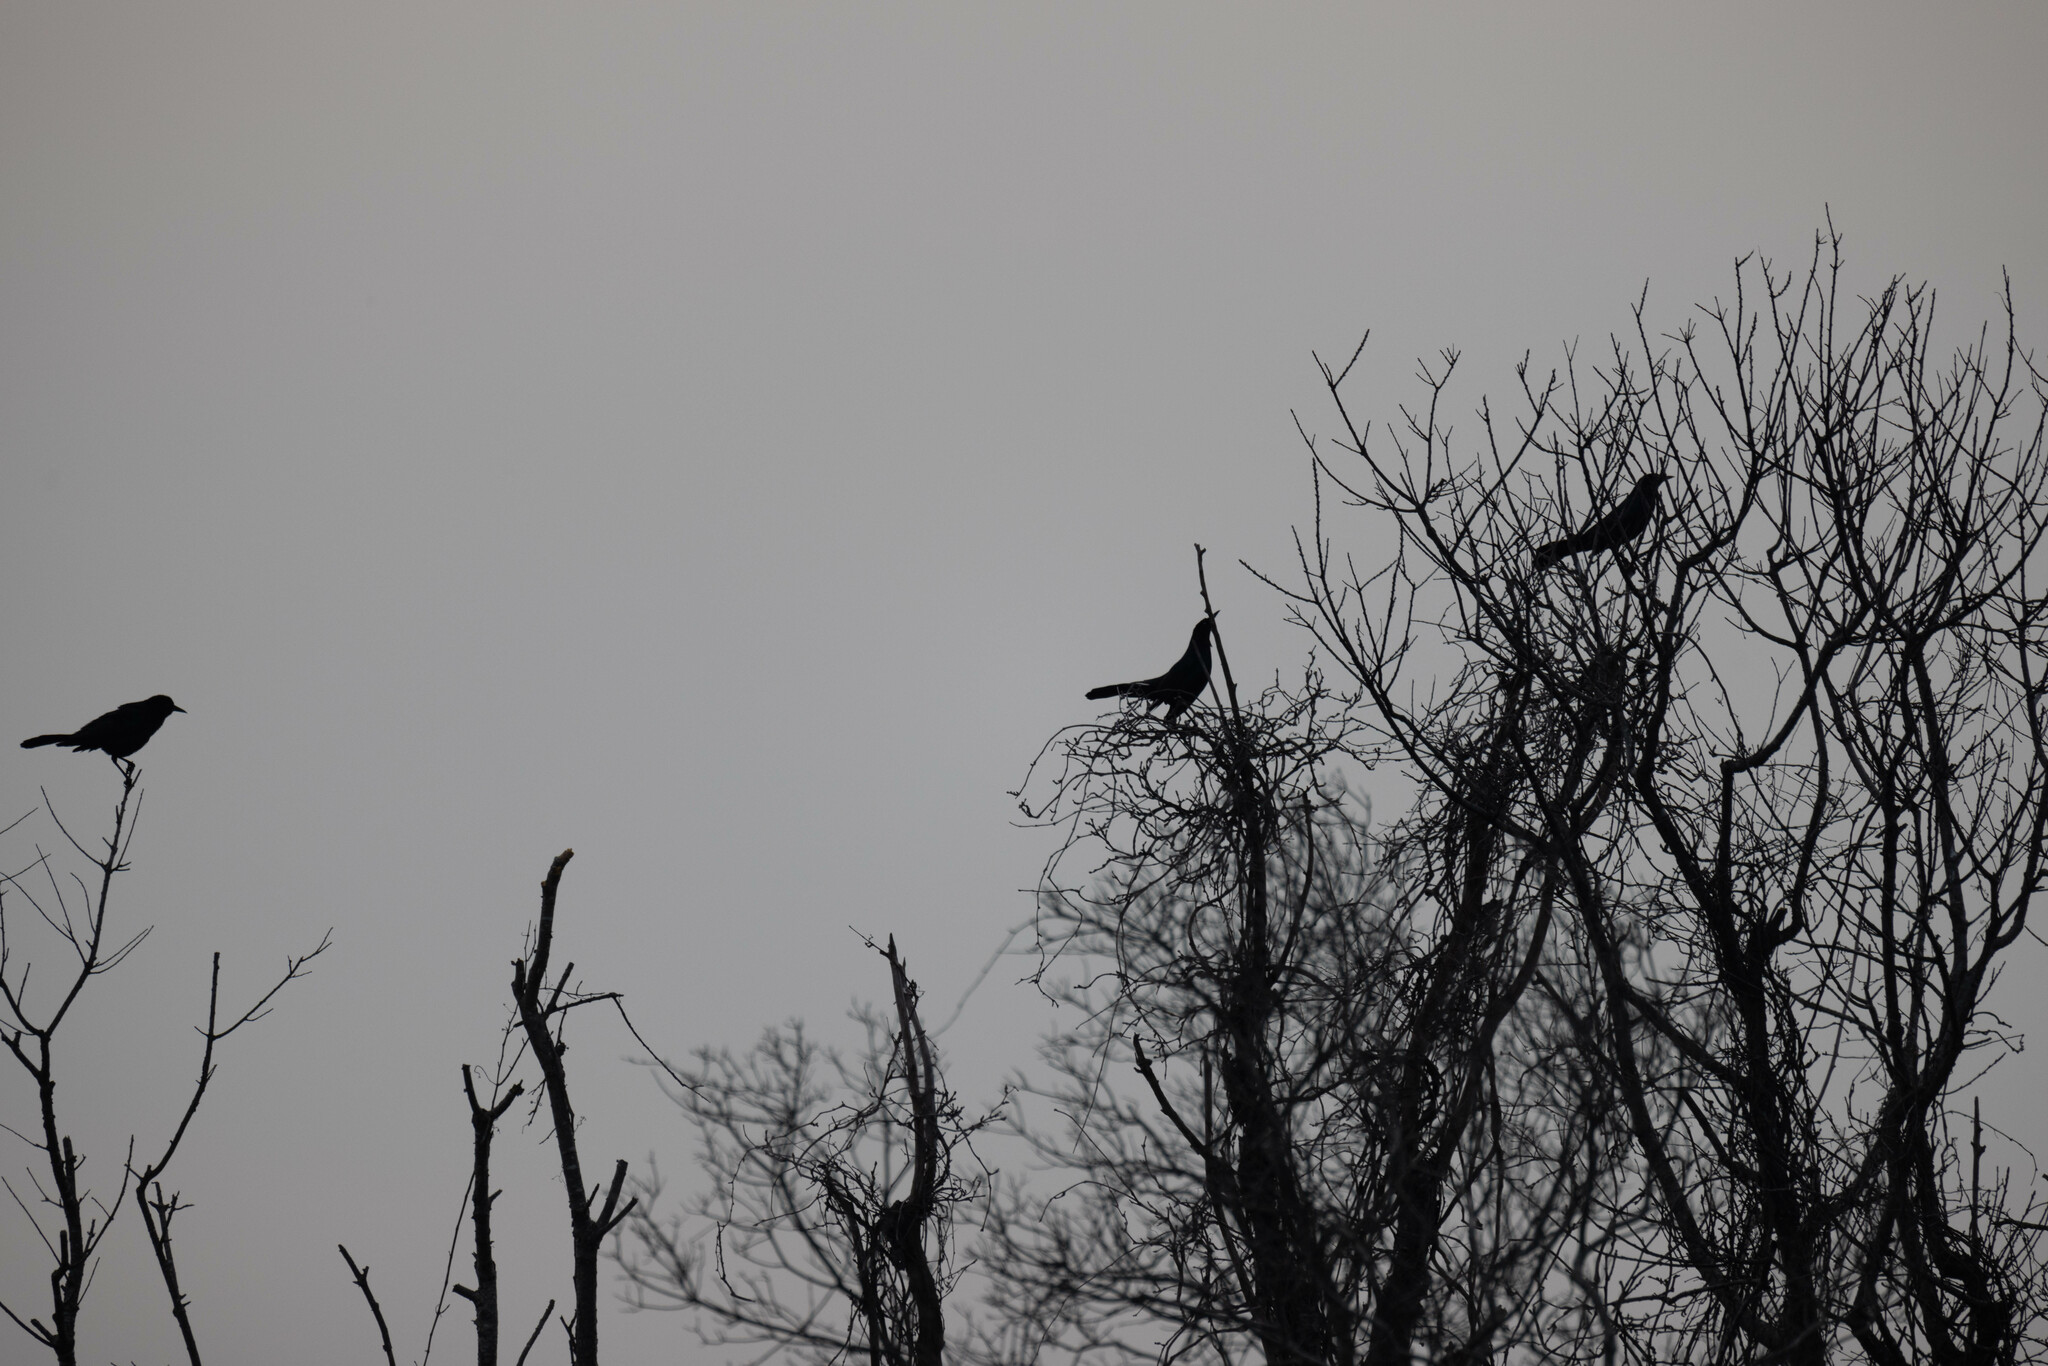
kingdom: Animalia
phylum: Chordata
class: Aves
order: Passeriformes
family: Icteridae
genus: Quiscalus
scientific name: Quiscalus major
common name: Boat-tailed grackle
